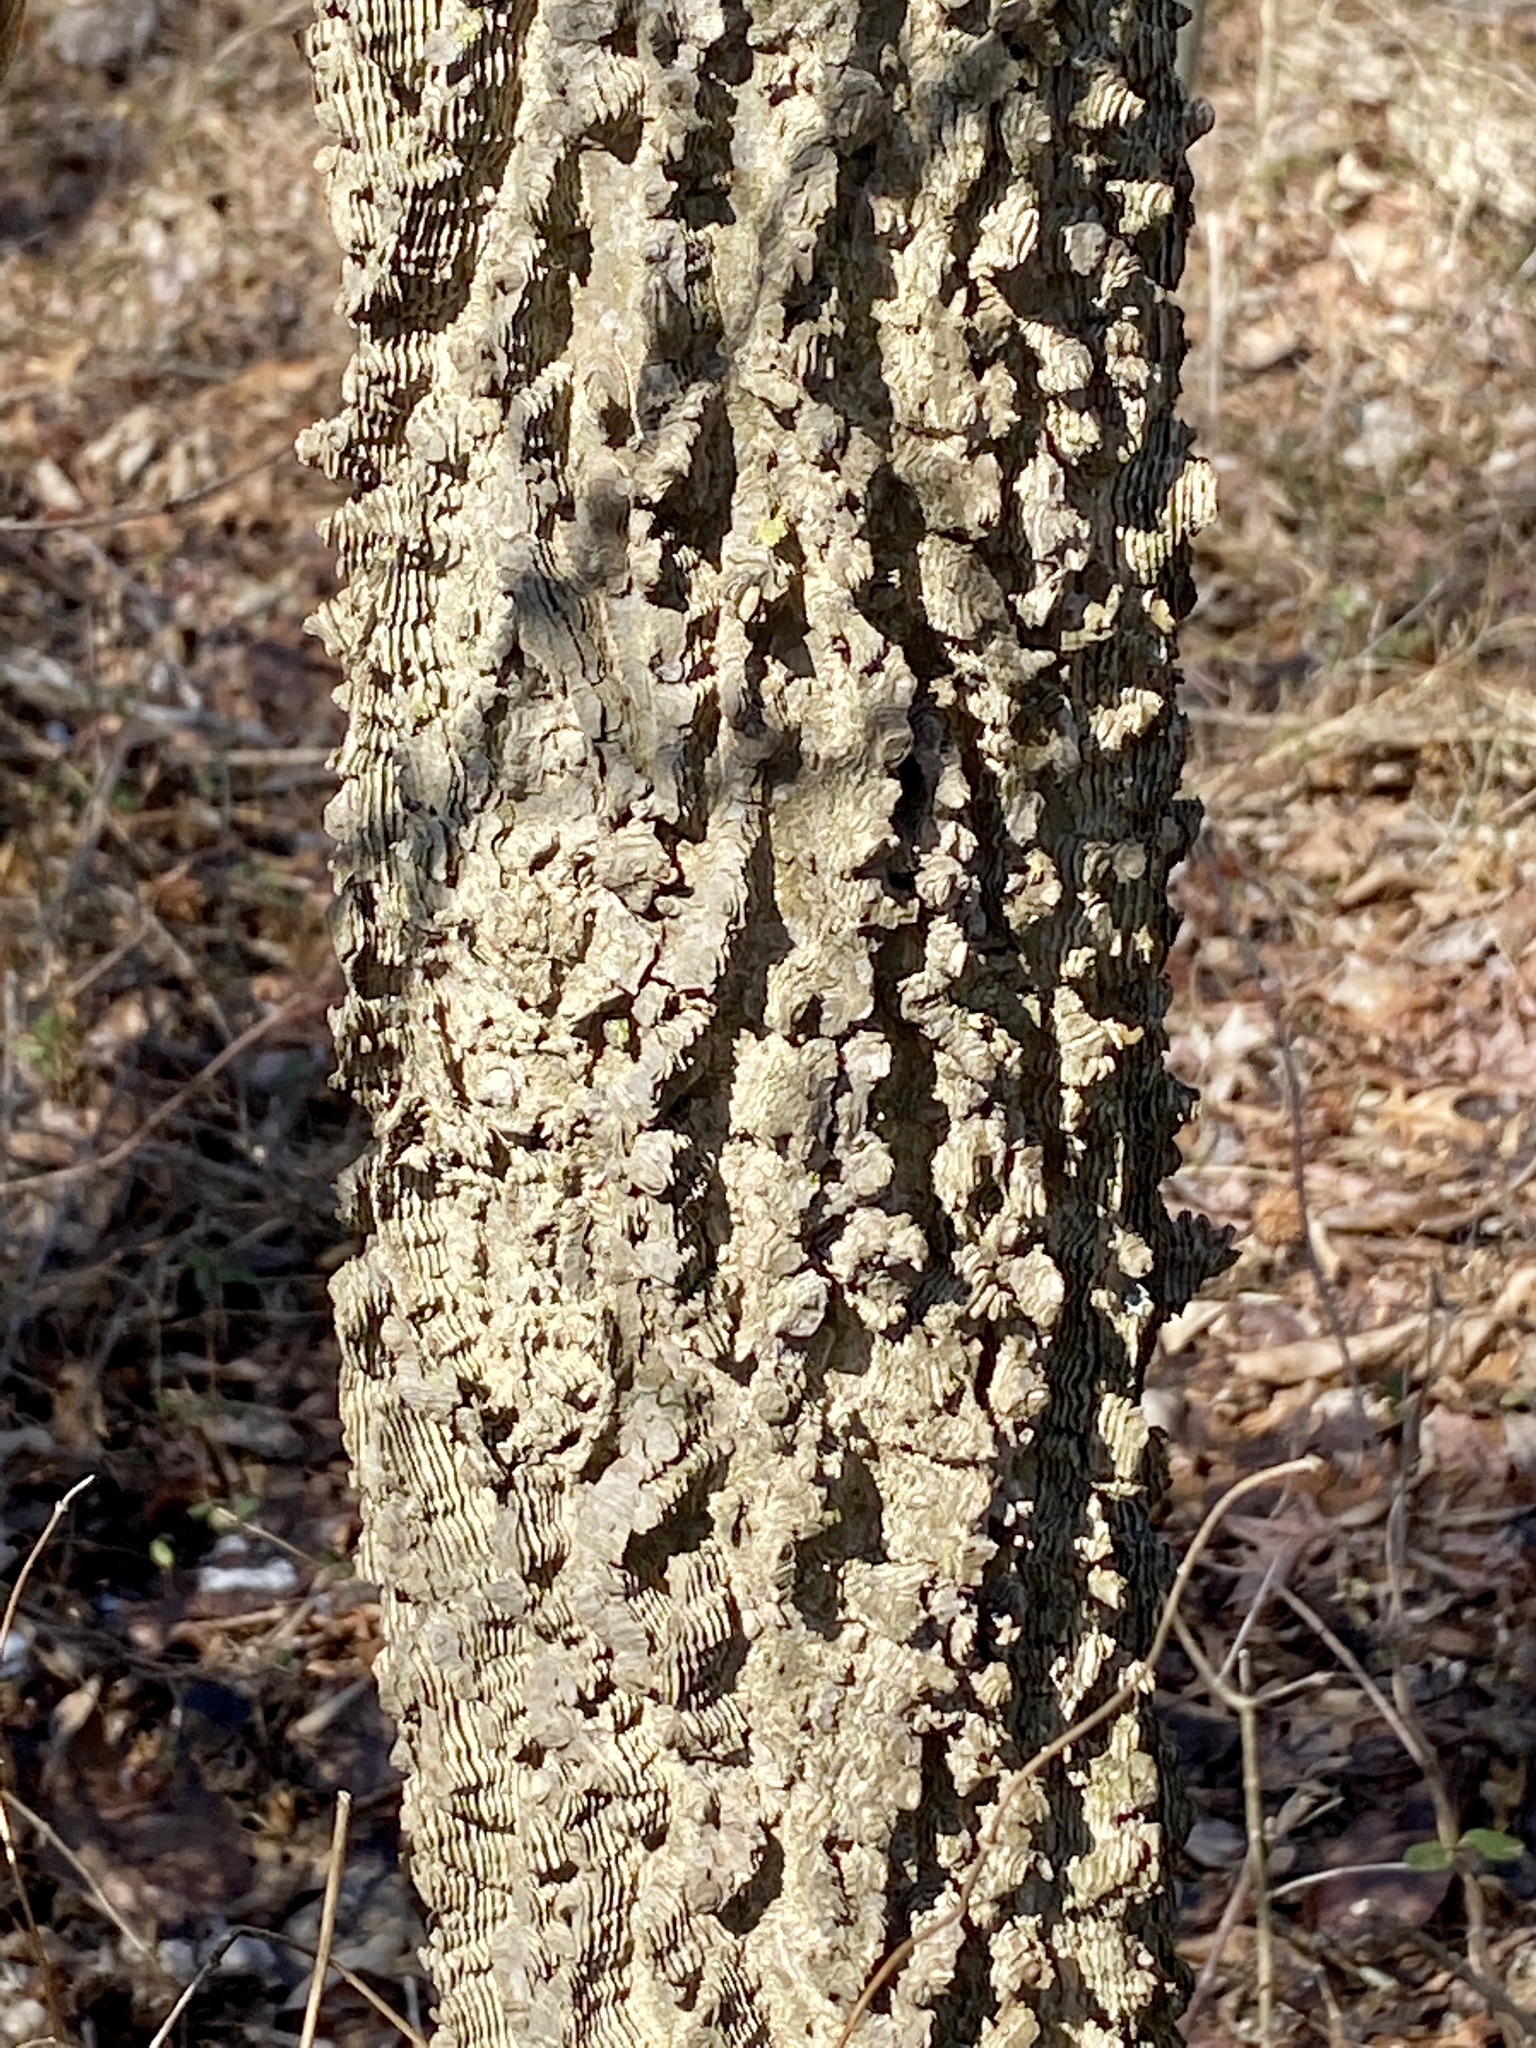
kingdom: Plantae
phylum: Tracheophyta
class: Magnoliopsida
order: Rosales
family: Cannabaceae
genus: Celtis
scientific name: Celtis occidentalis
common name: Common hackberry
